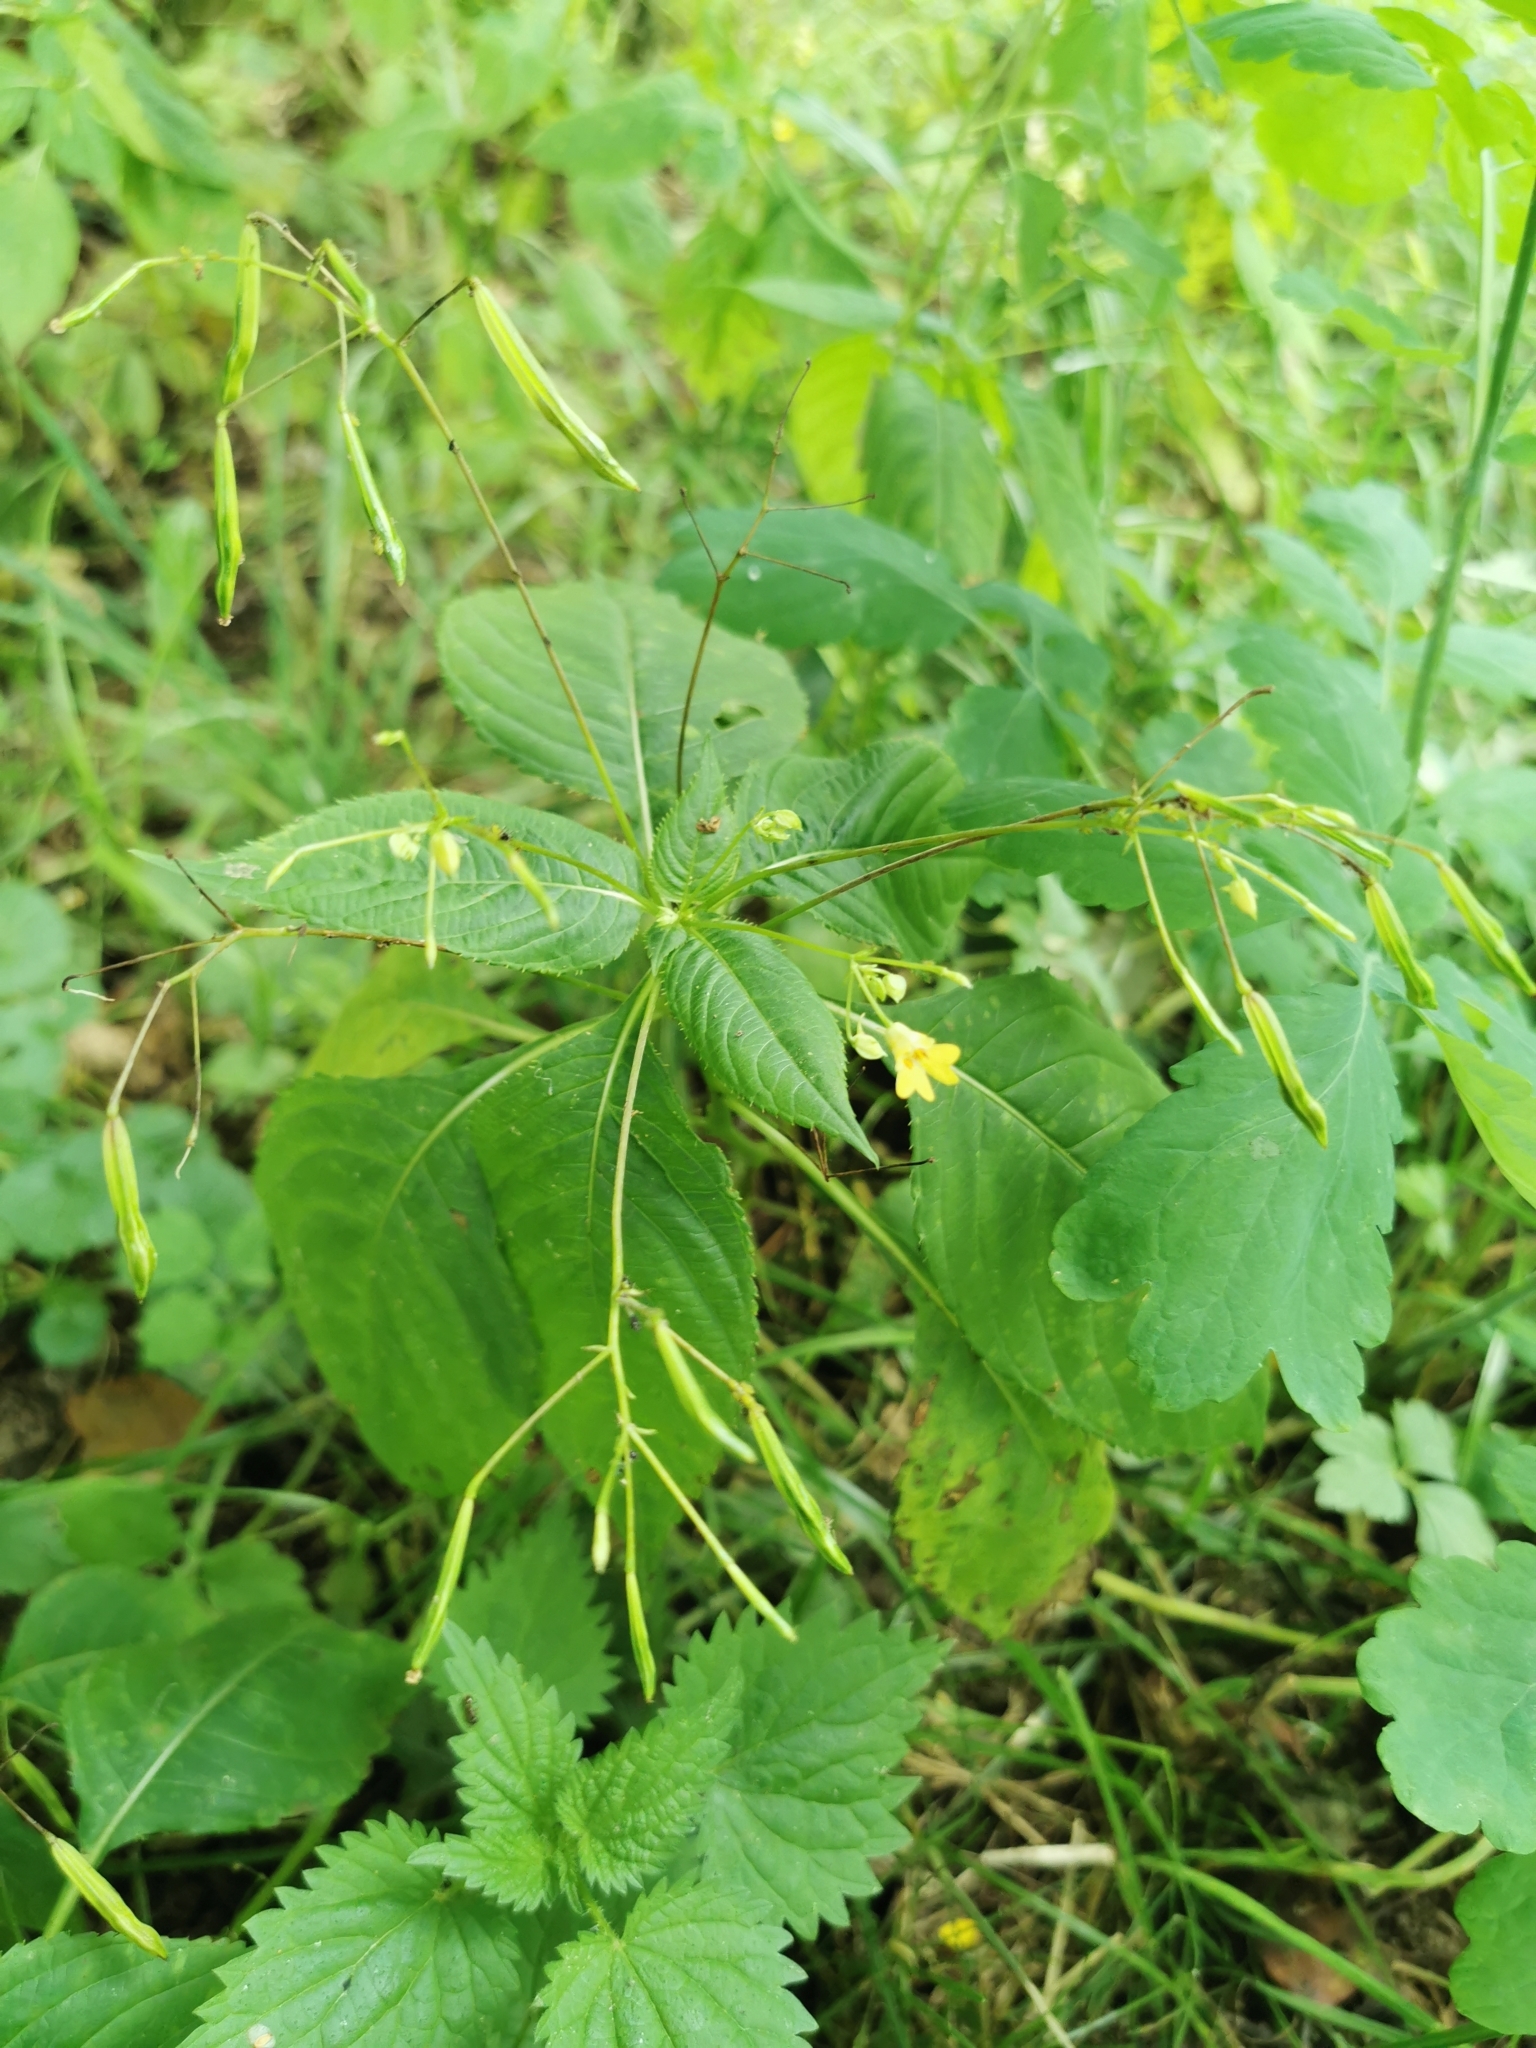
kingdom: Plantae
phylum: Tracheophyta
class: Magnoliopsida
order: Ericales
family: Balsaminaceae
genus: Impatiens
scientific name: Impatiens parviflora
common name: Small balsam
